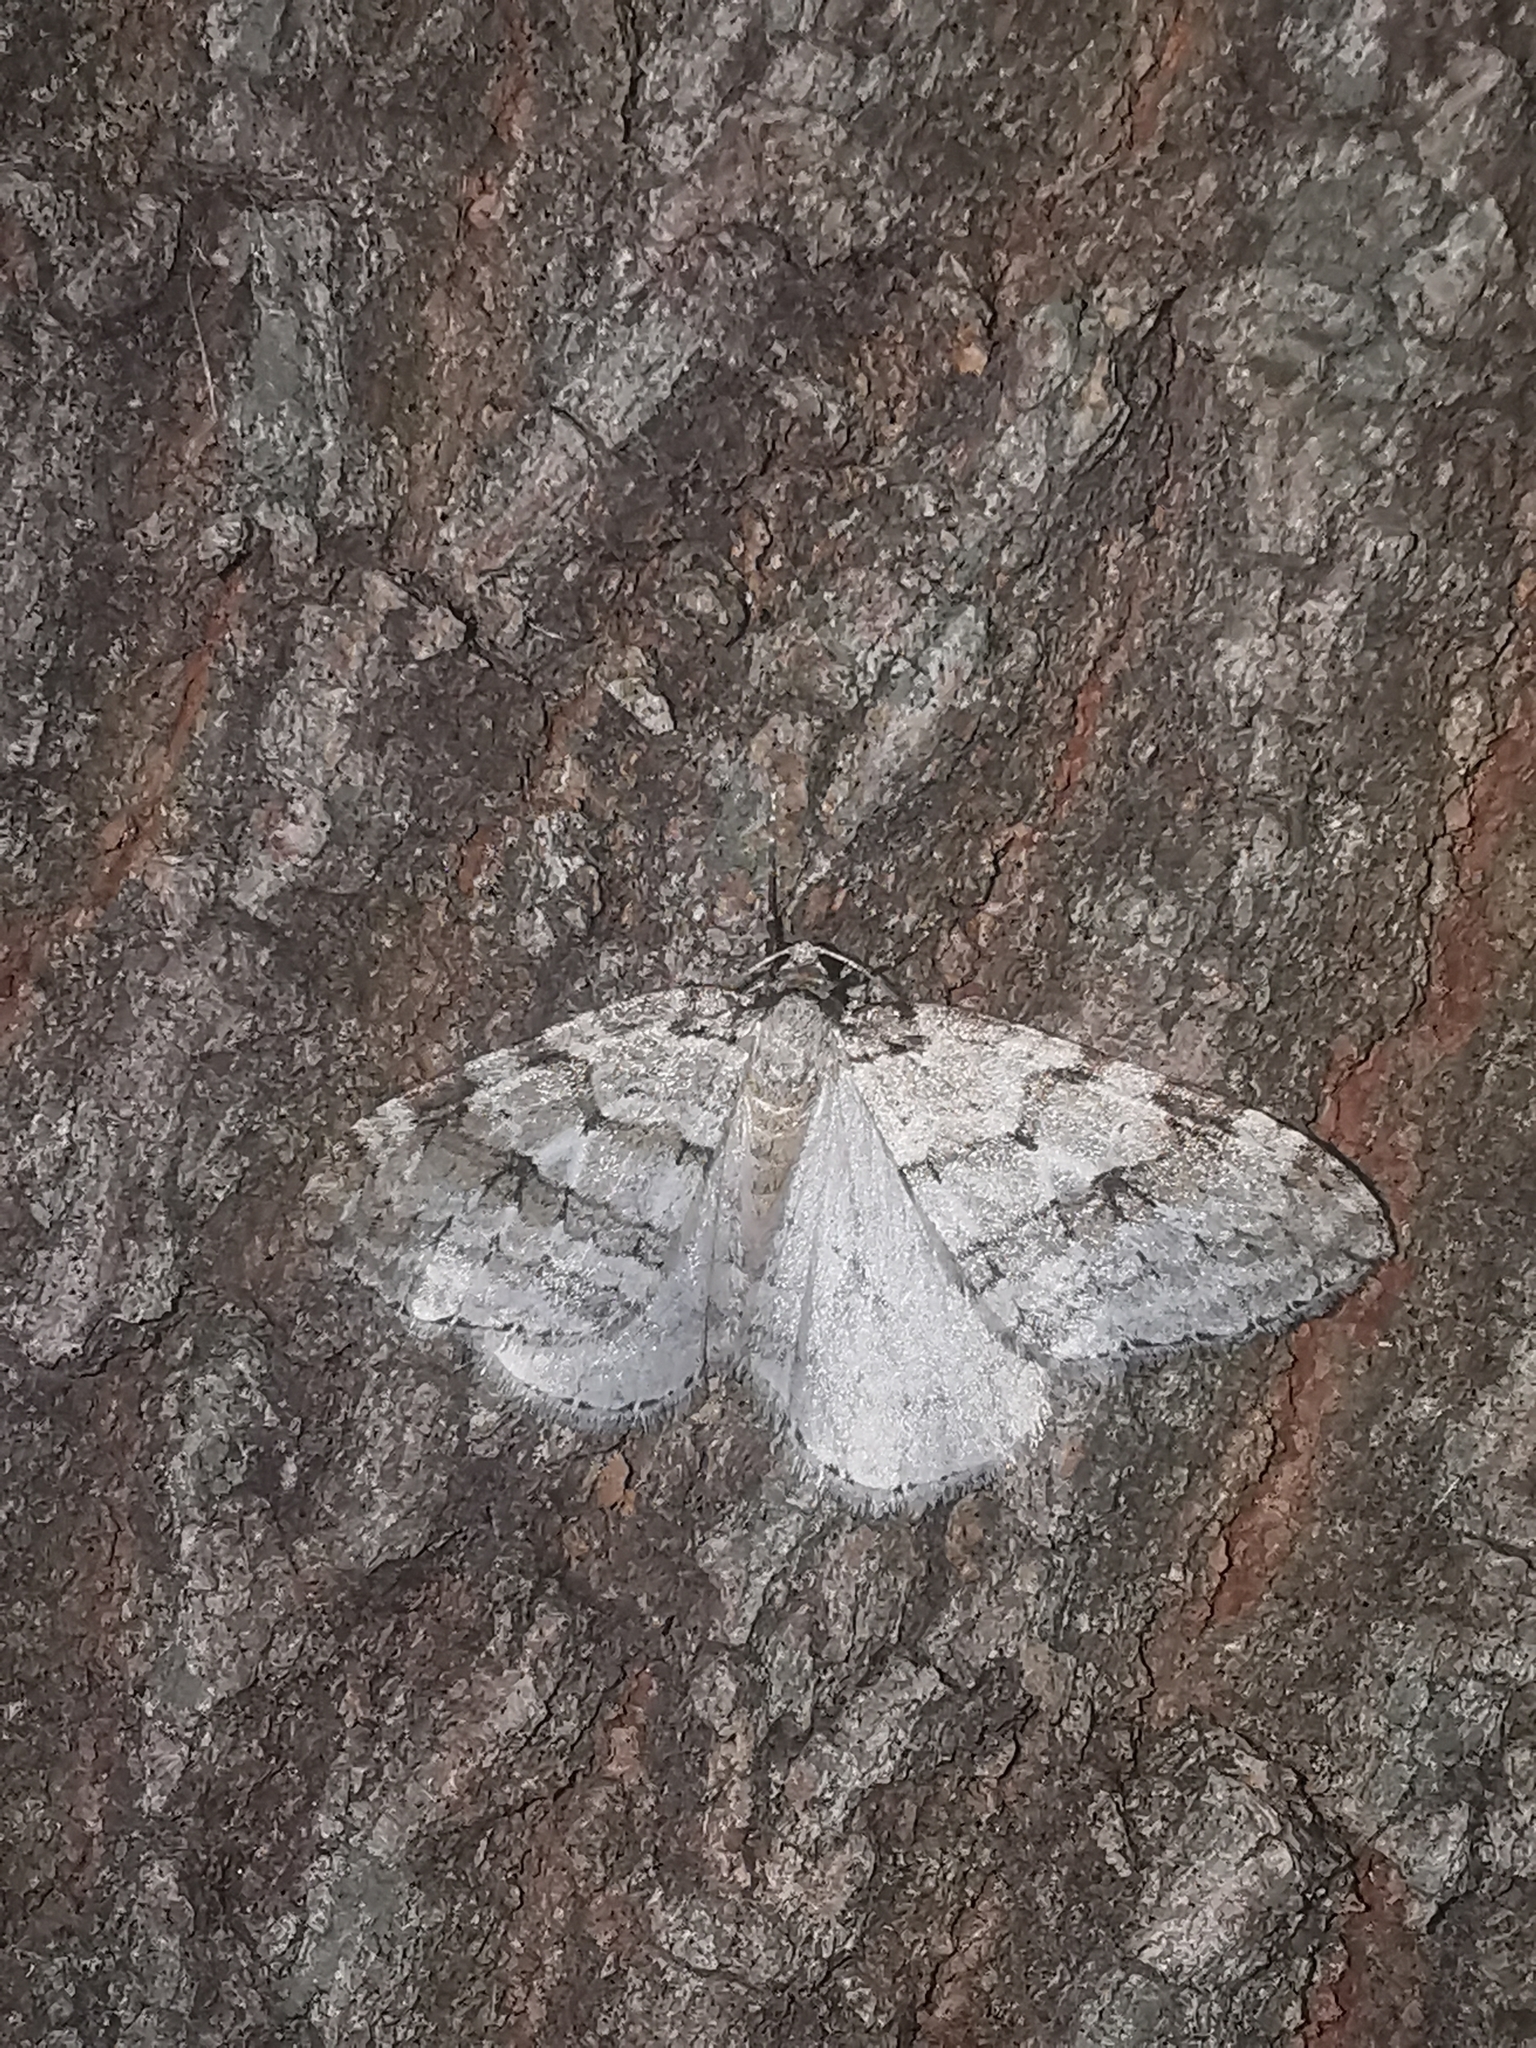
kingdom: Animalia
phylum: Arthropoda
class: Insecta
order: Lepidoptera
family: Geometridae
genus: Epirrita
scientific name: Epirrita autumnata
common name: Autumnal moth
